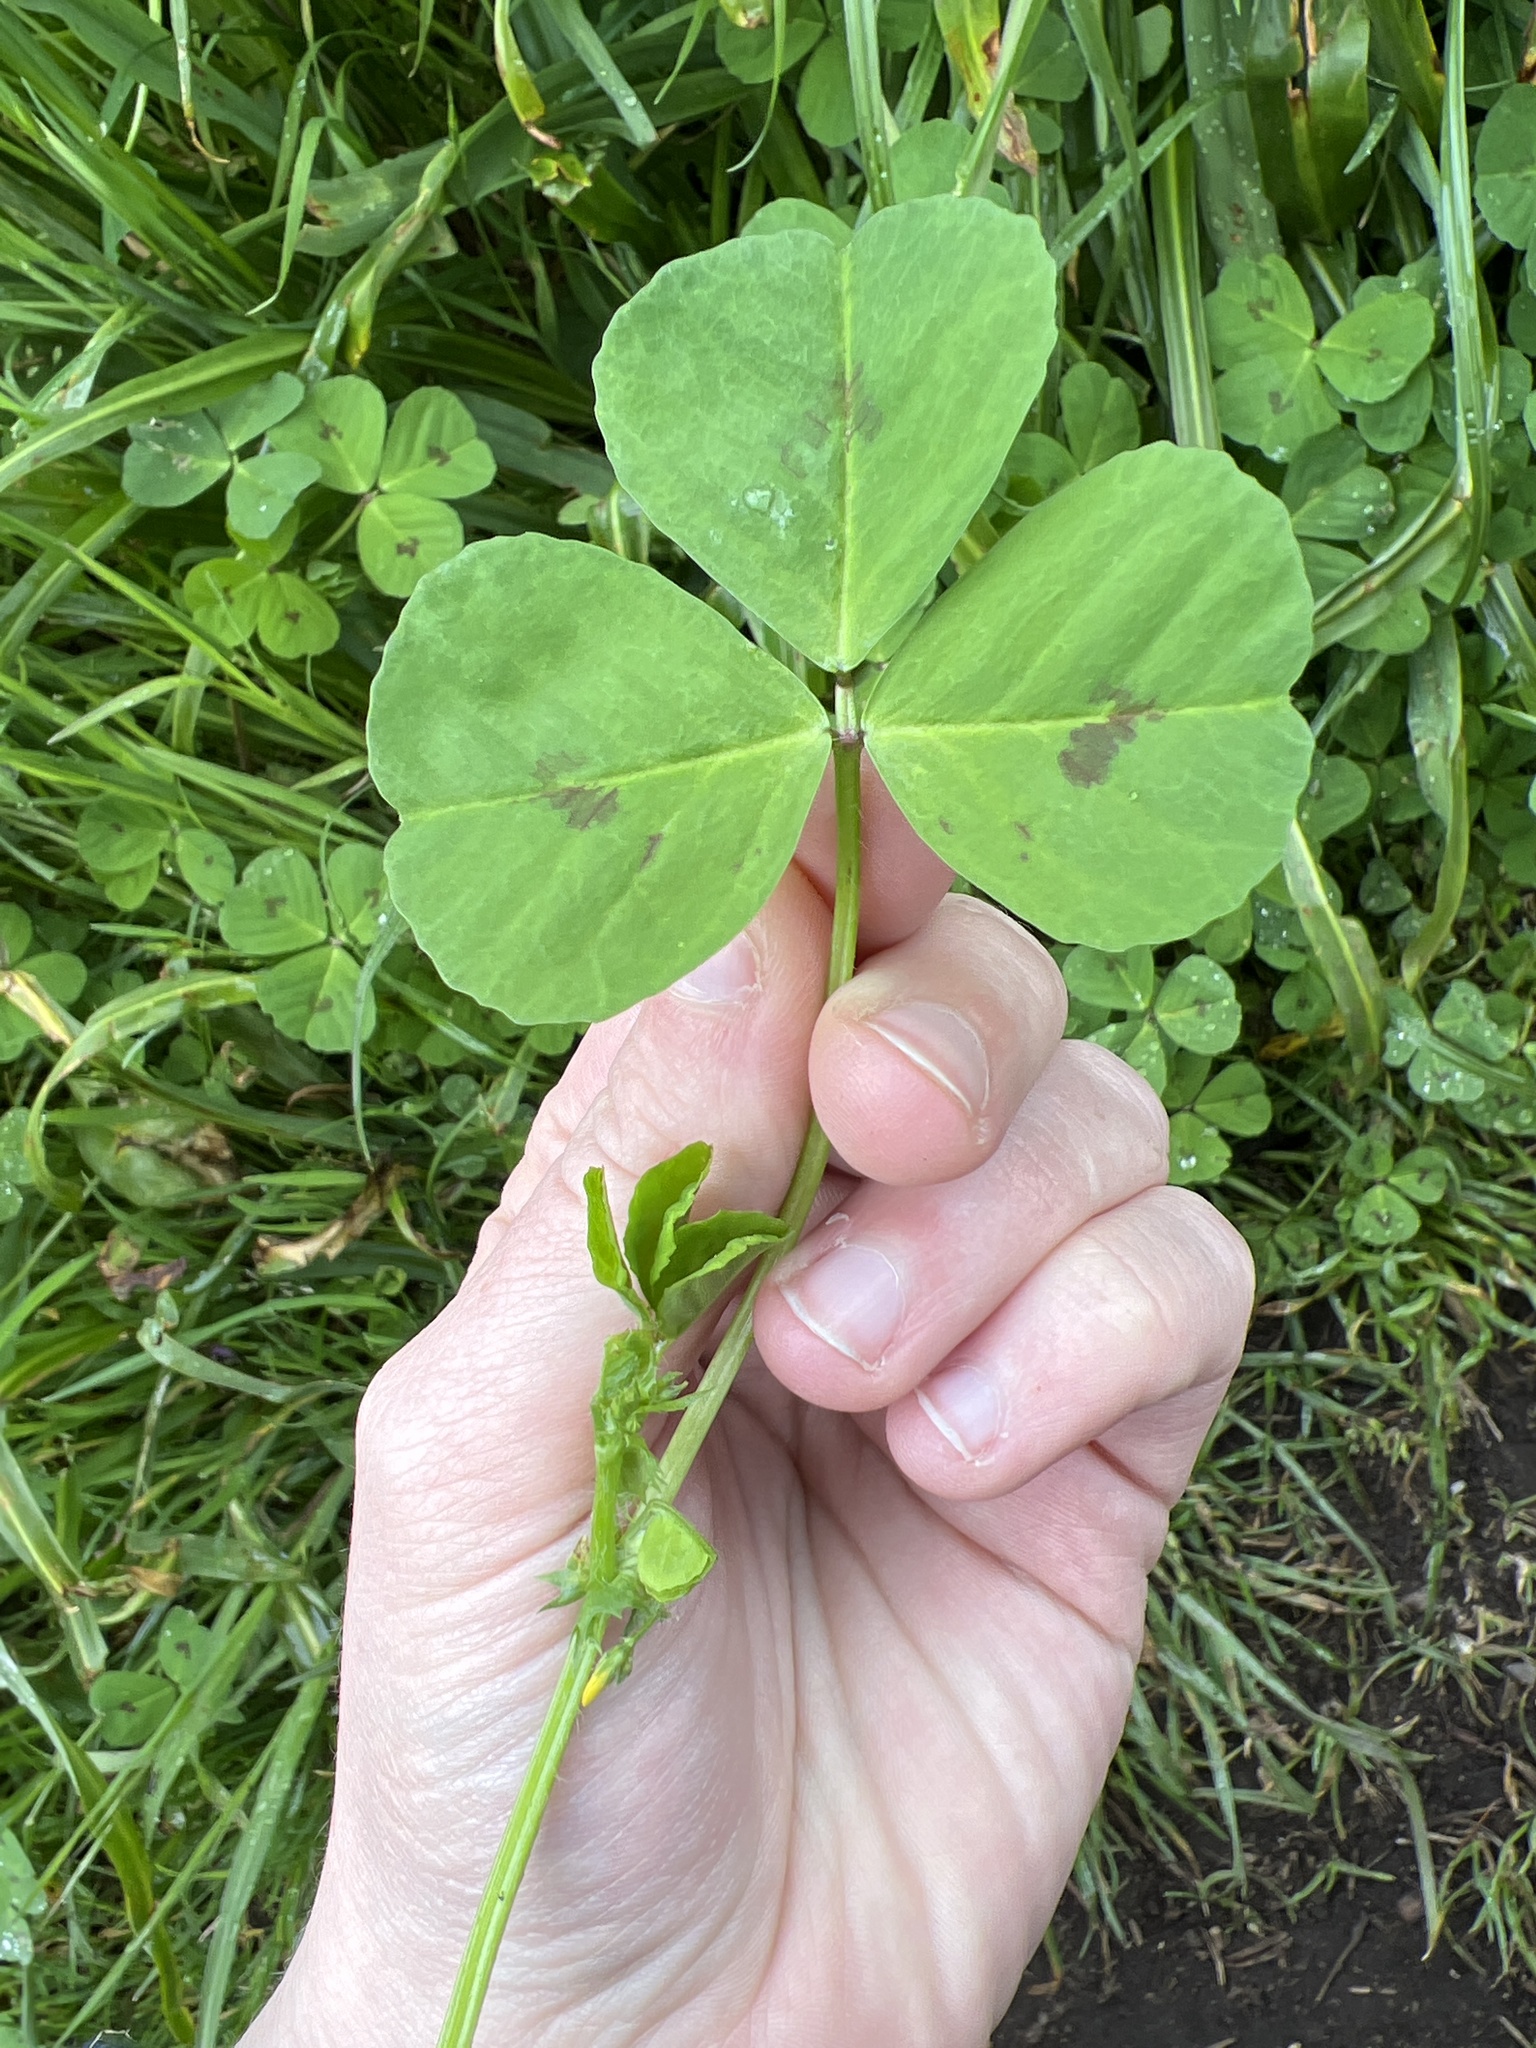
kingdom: Plantae
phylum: Tracheophyta
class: Magnoliopsida
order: Fabales
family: Fabaceae
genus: Medicago
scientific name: Medicago arabica
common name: Spotted medick
